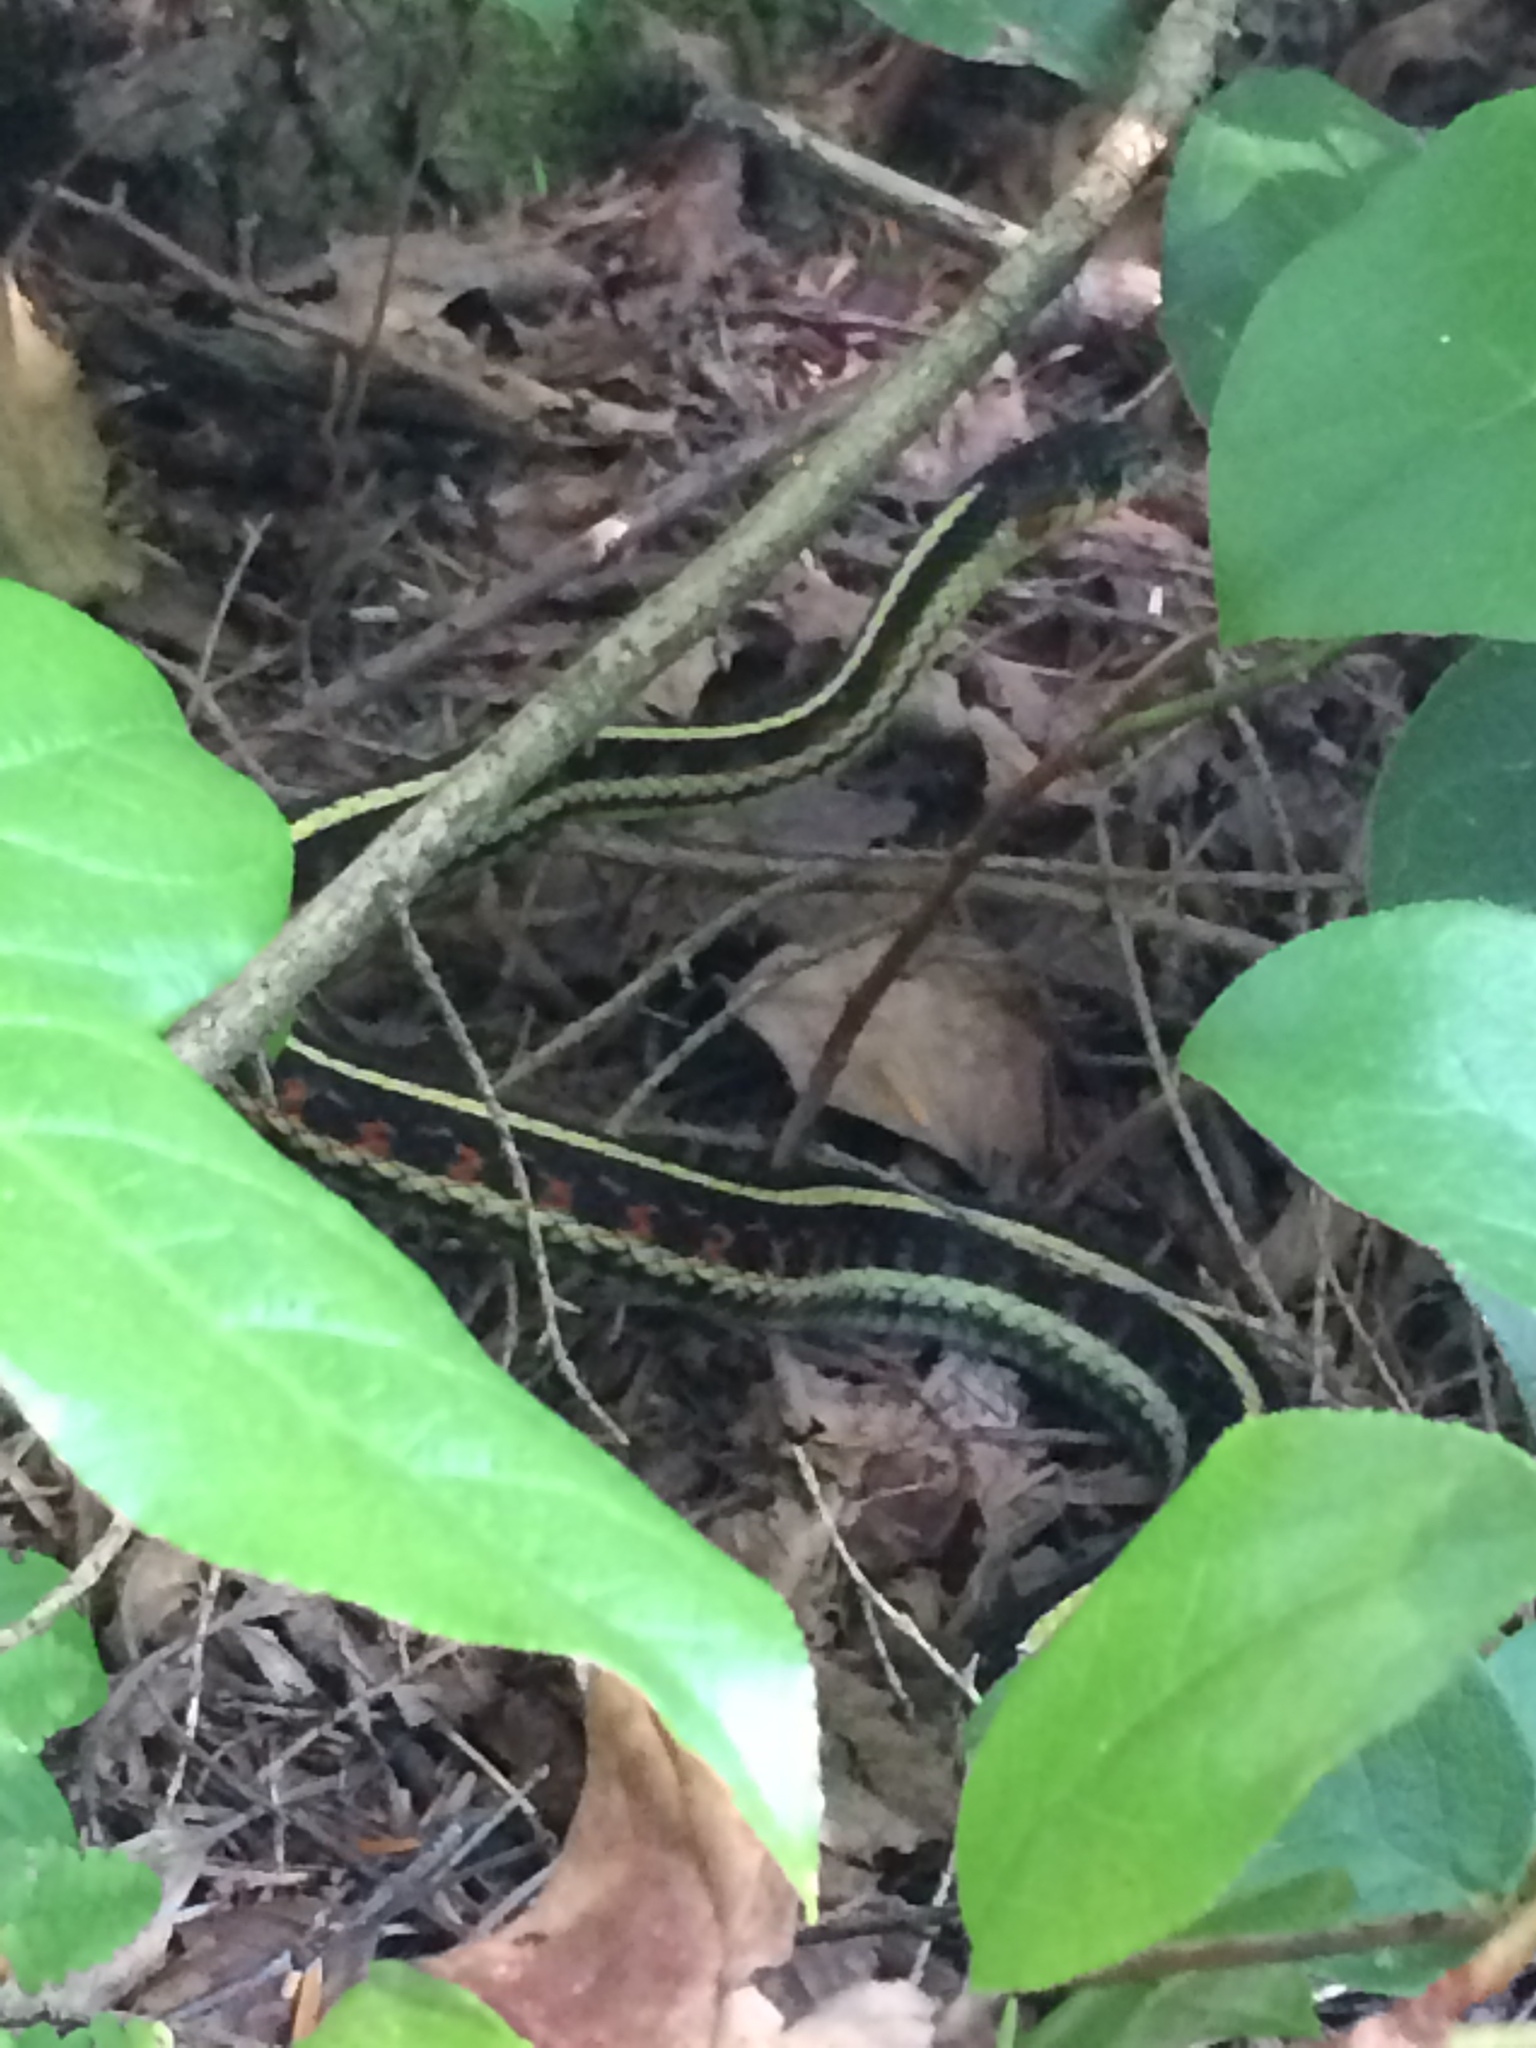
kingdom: Animalia
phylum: Chordata
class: Squamata
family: Colubridae
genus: Thamnophis
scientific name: Thamnophis sirtalis
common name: Common garter snake
